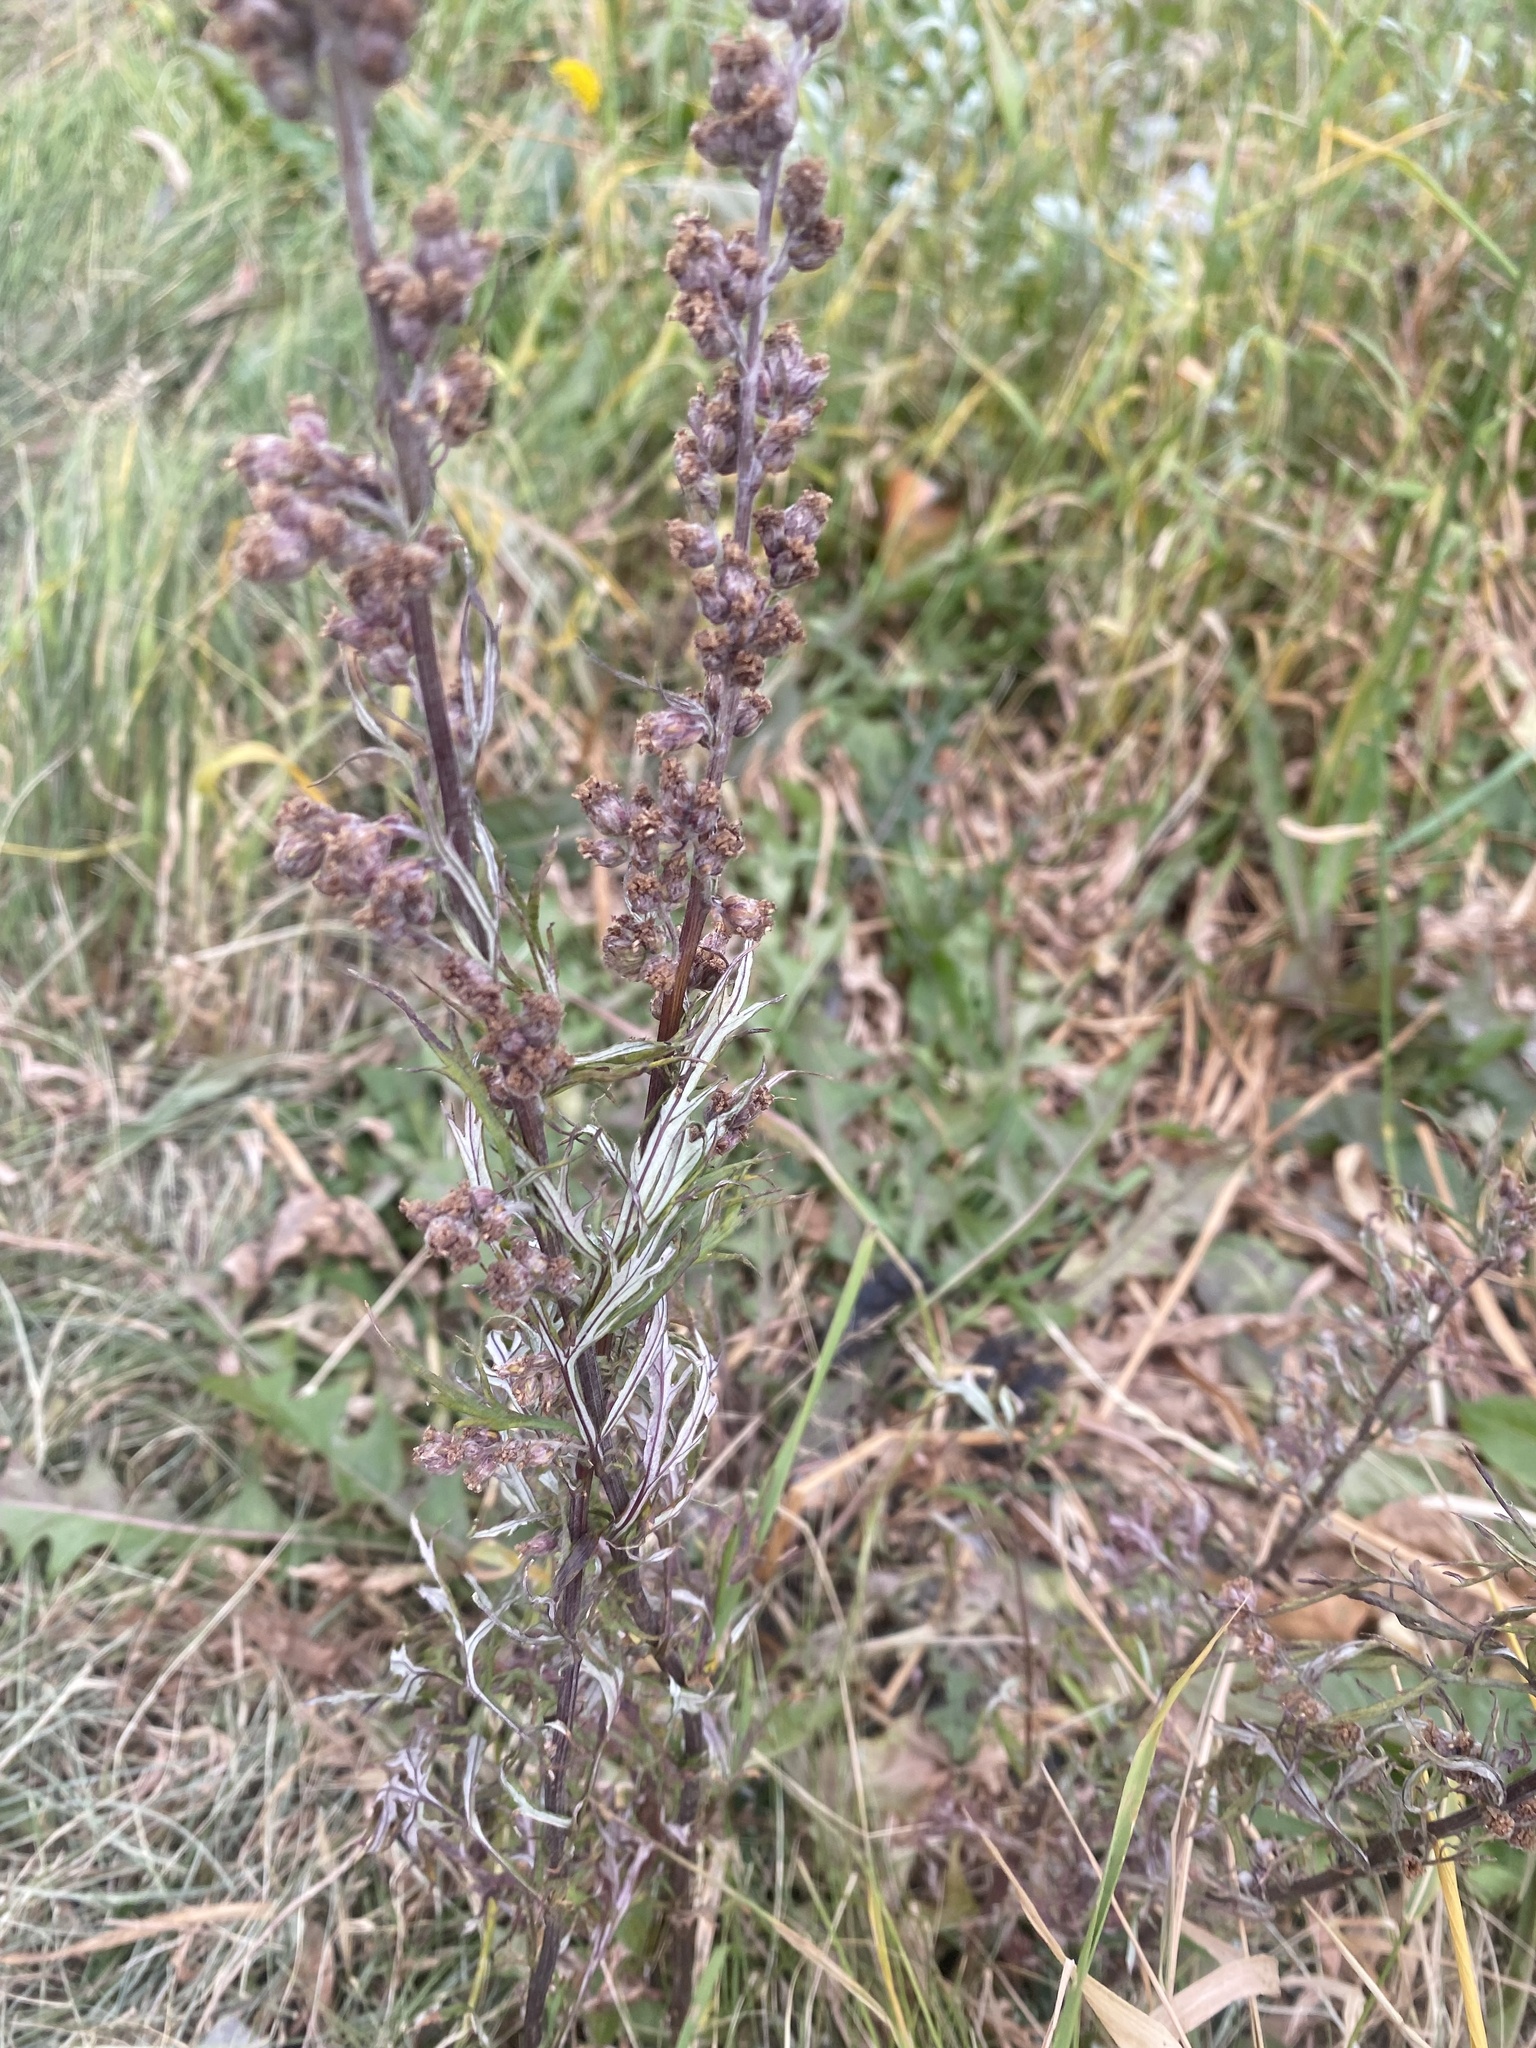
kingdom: Plantae
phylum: Tracheophyta
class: Magnoliopsida
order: Asterales
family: Asteraceae
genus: Artemisia
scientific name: Artemisia vulgaris
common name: Mugwort
